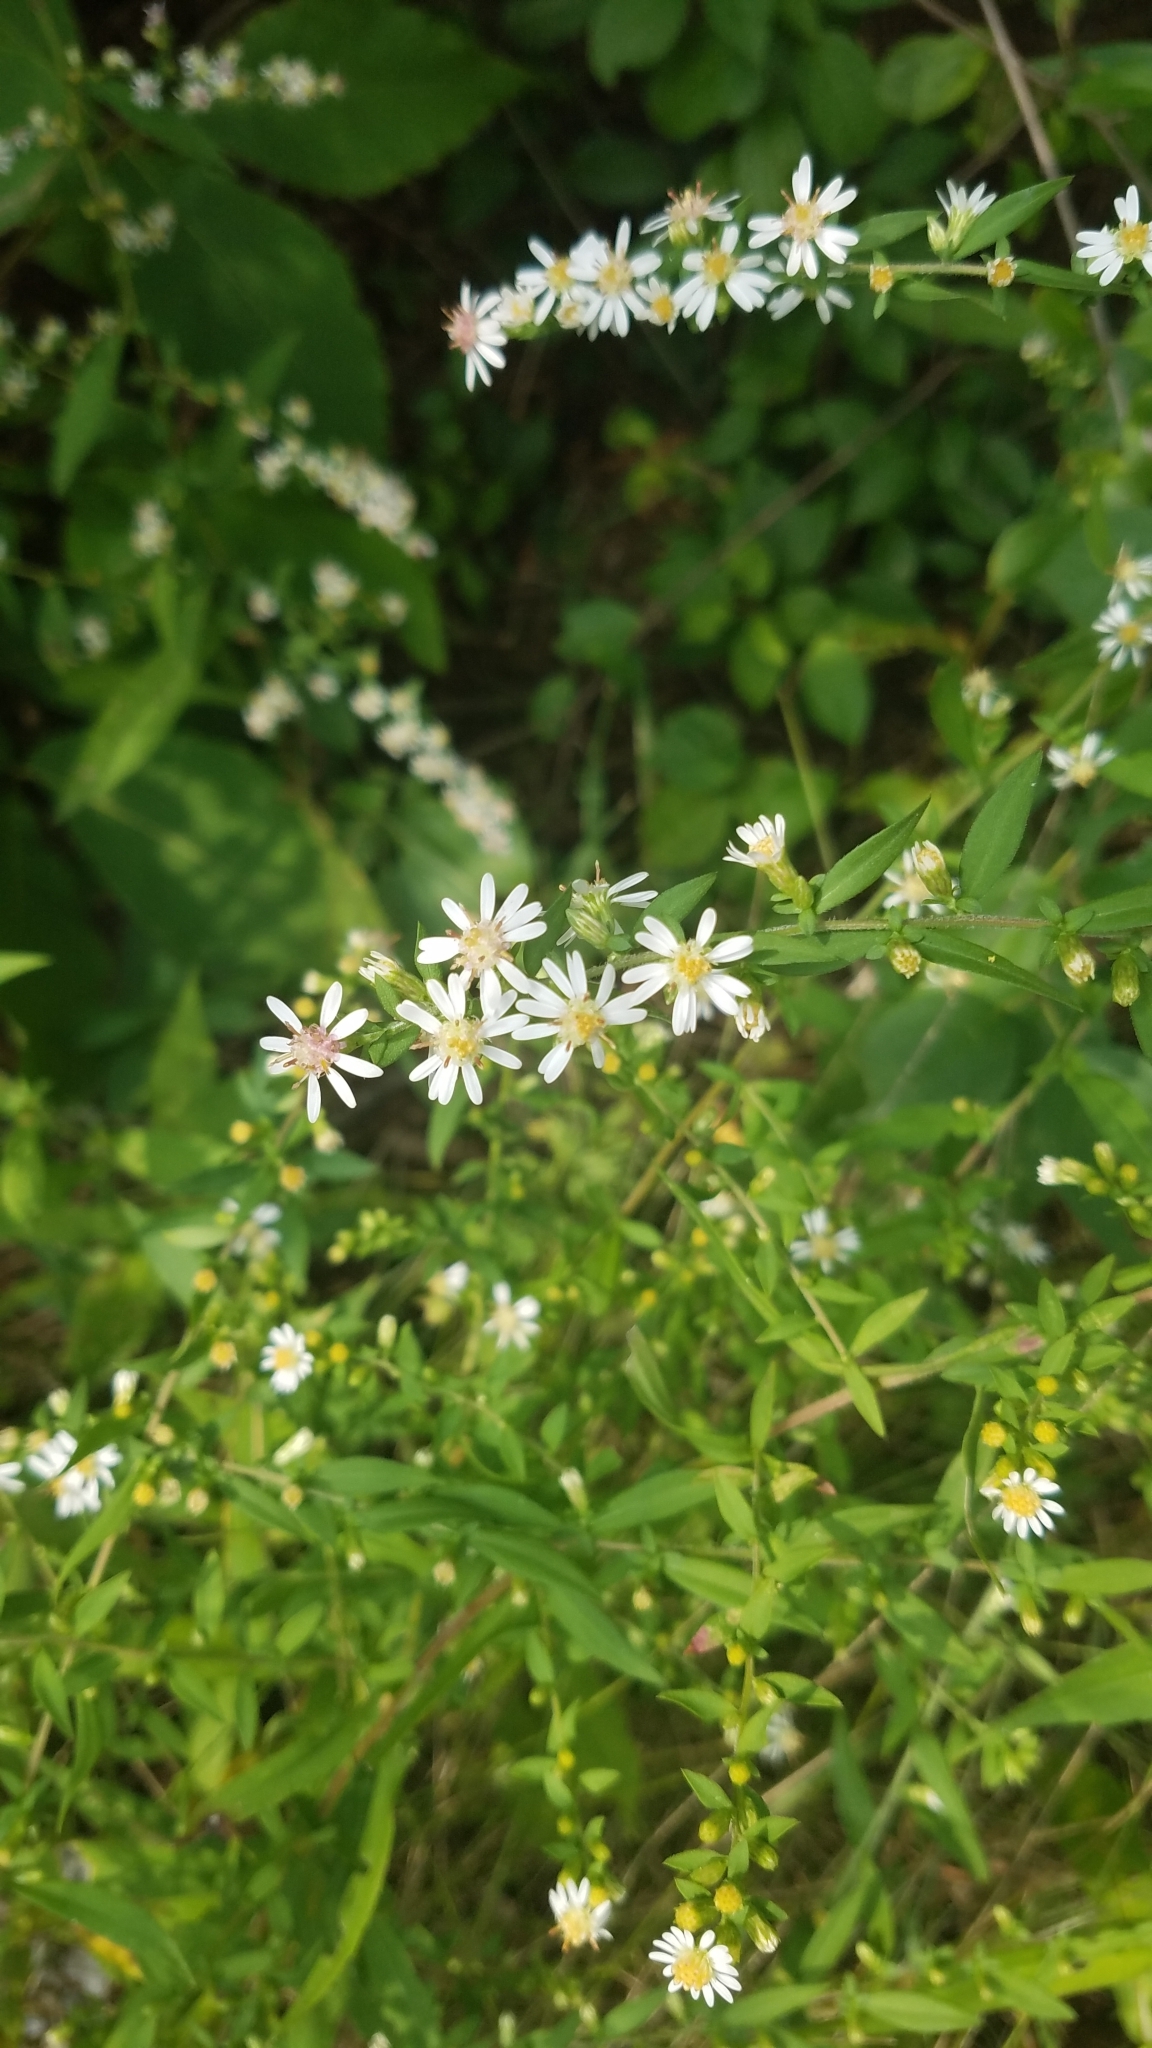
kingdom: Plantae
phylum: Tracheophyta
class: Magnoliopsida
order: Asterales
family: Asteraceae
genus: Symphyotrichum
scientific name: Symphyotrichum lateriflorum
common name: Calico aster
